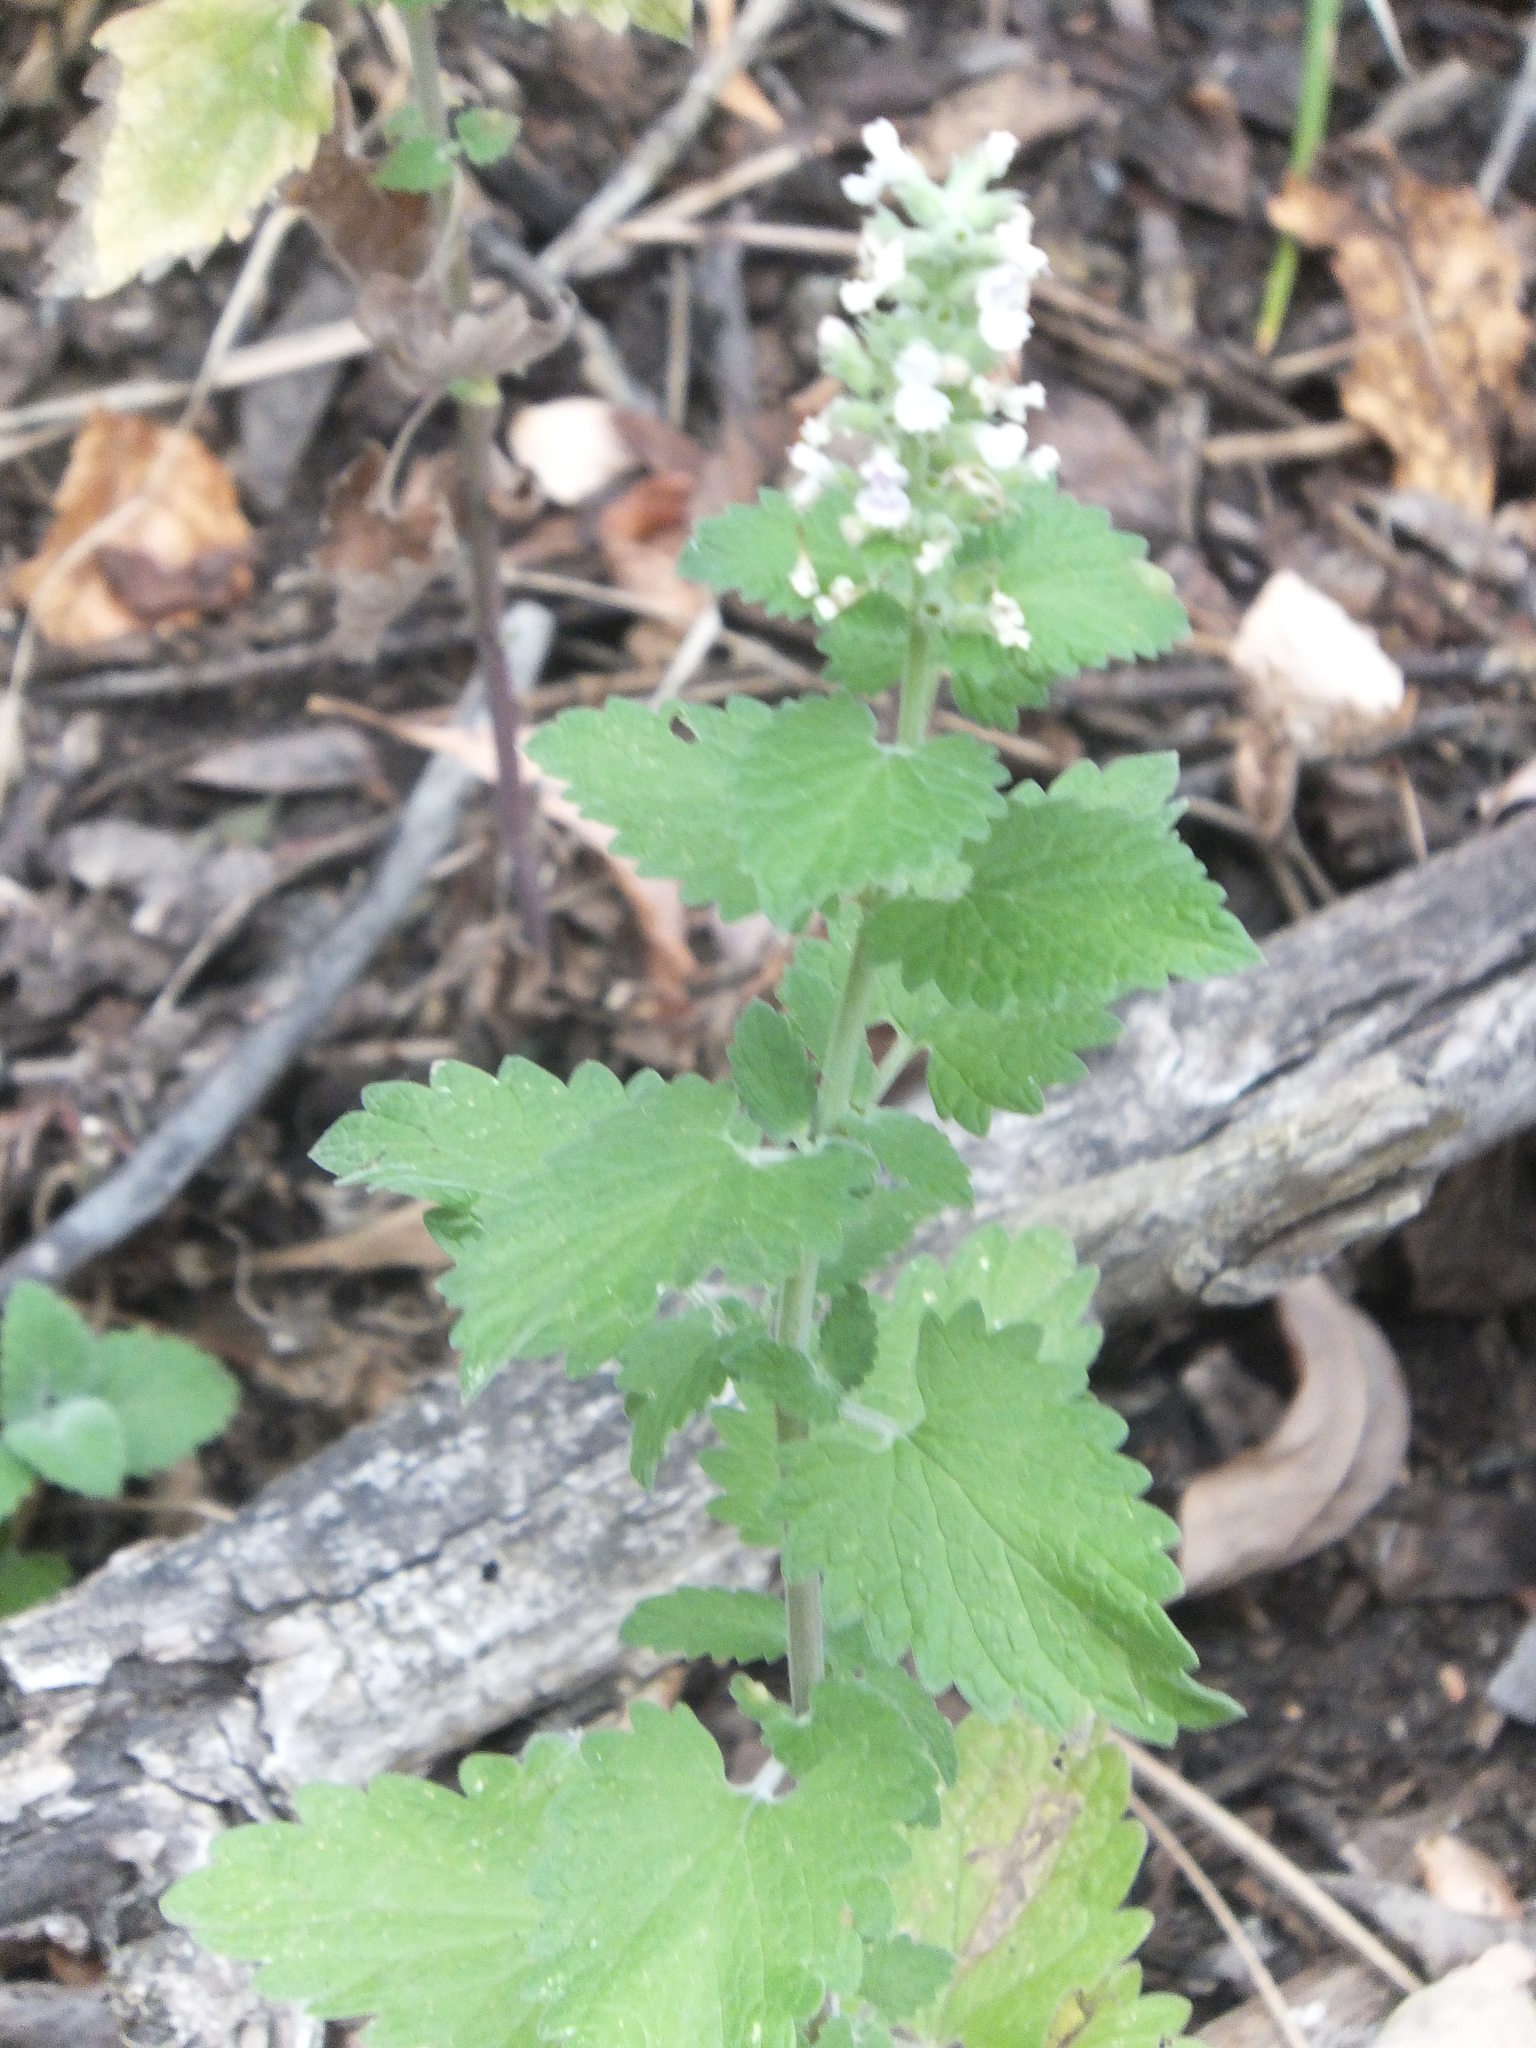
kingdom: Plantae
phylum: Tracheophyta
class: Magnoliopsida
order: Lamiales
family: Lamiaceae
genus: Nepeta
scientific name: Nepeta cataria
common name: Catnip
